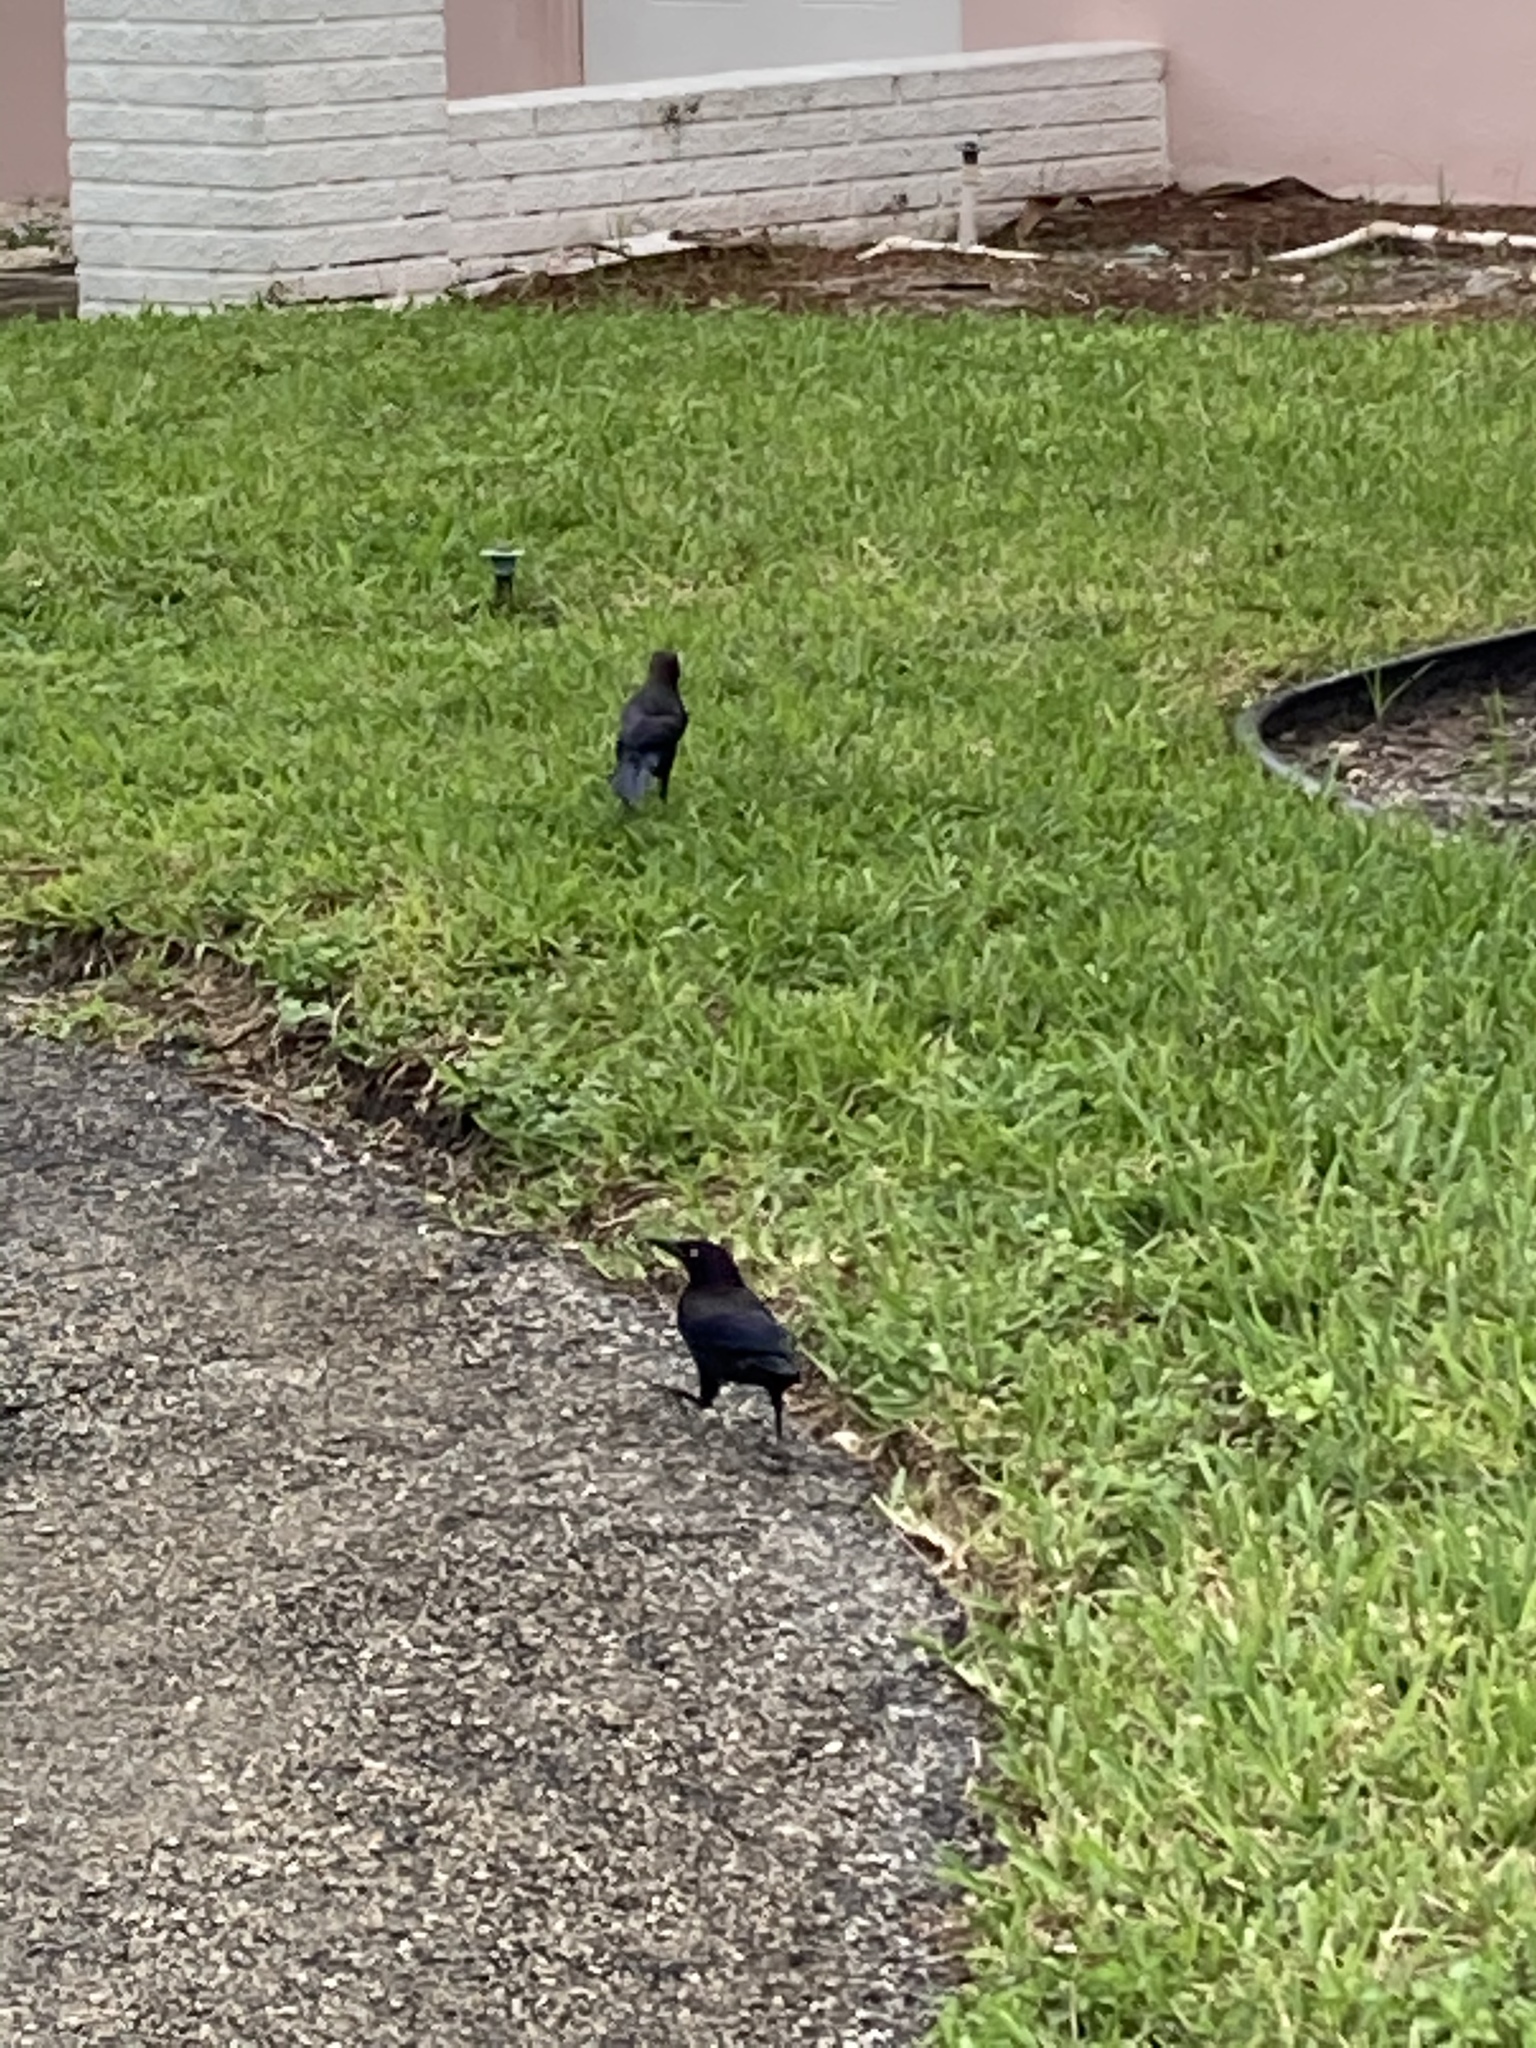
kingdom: Animalia
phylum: Chordata
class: Aves
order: Passeriformes
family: Icteridae
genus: Quiscalus
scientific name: Quiscalus quiscula
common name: Common grackle
